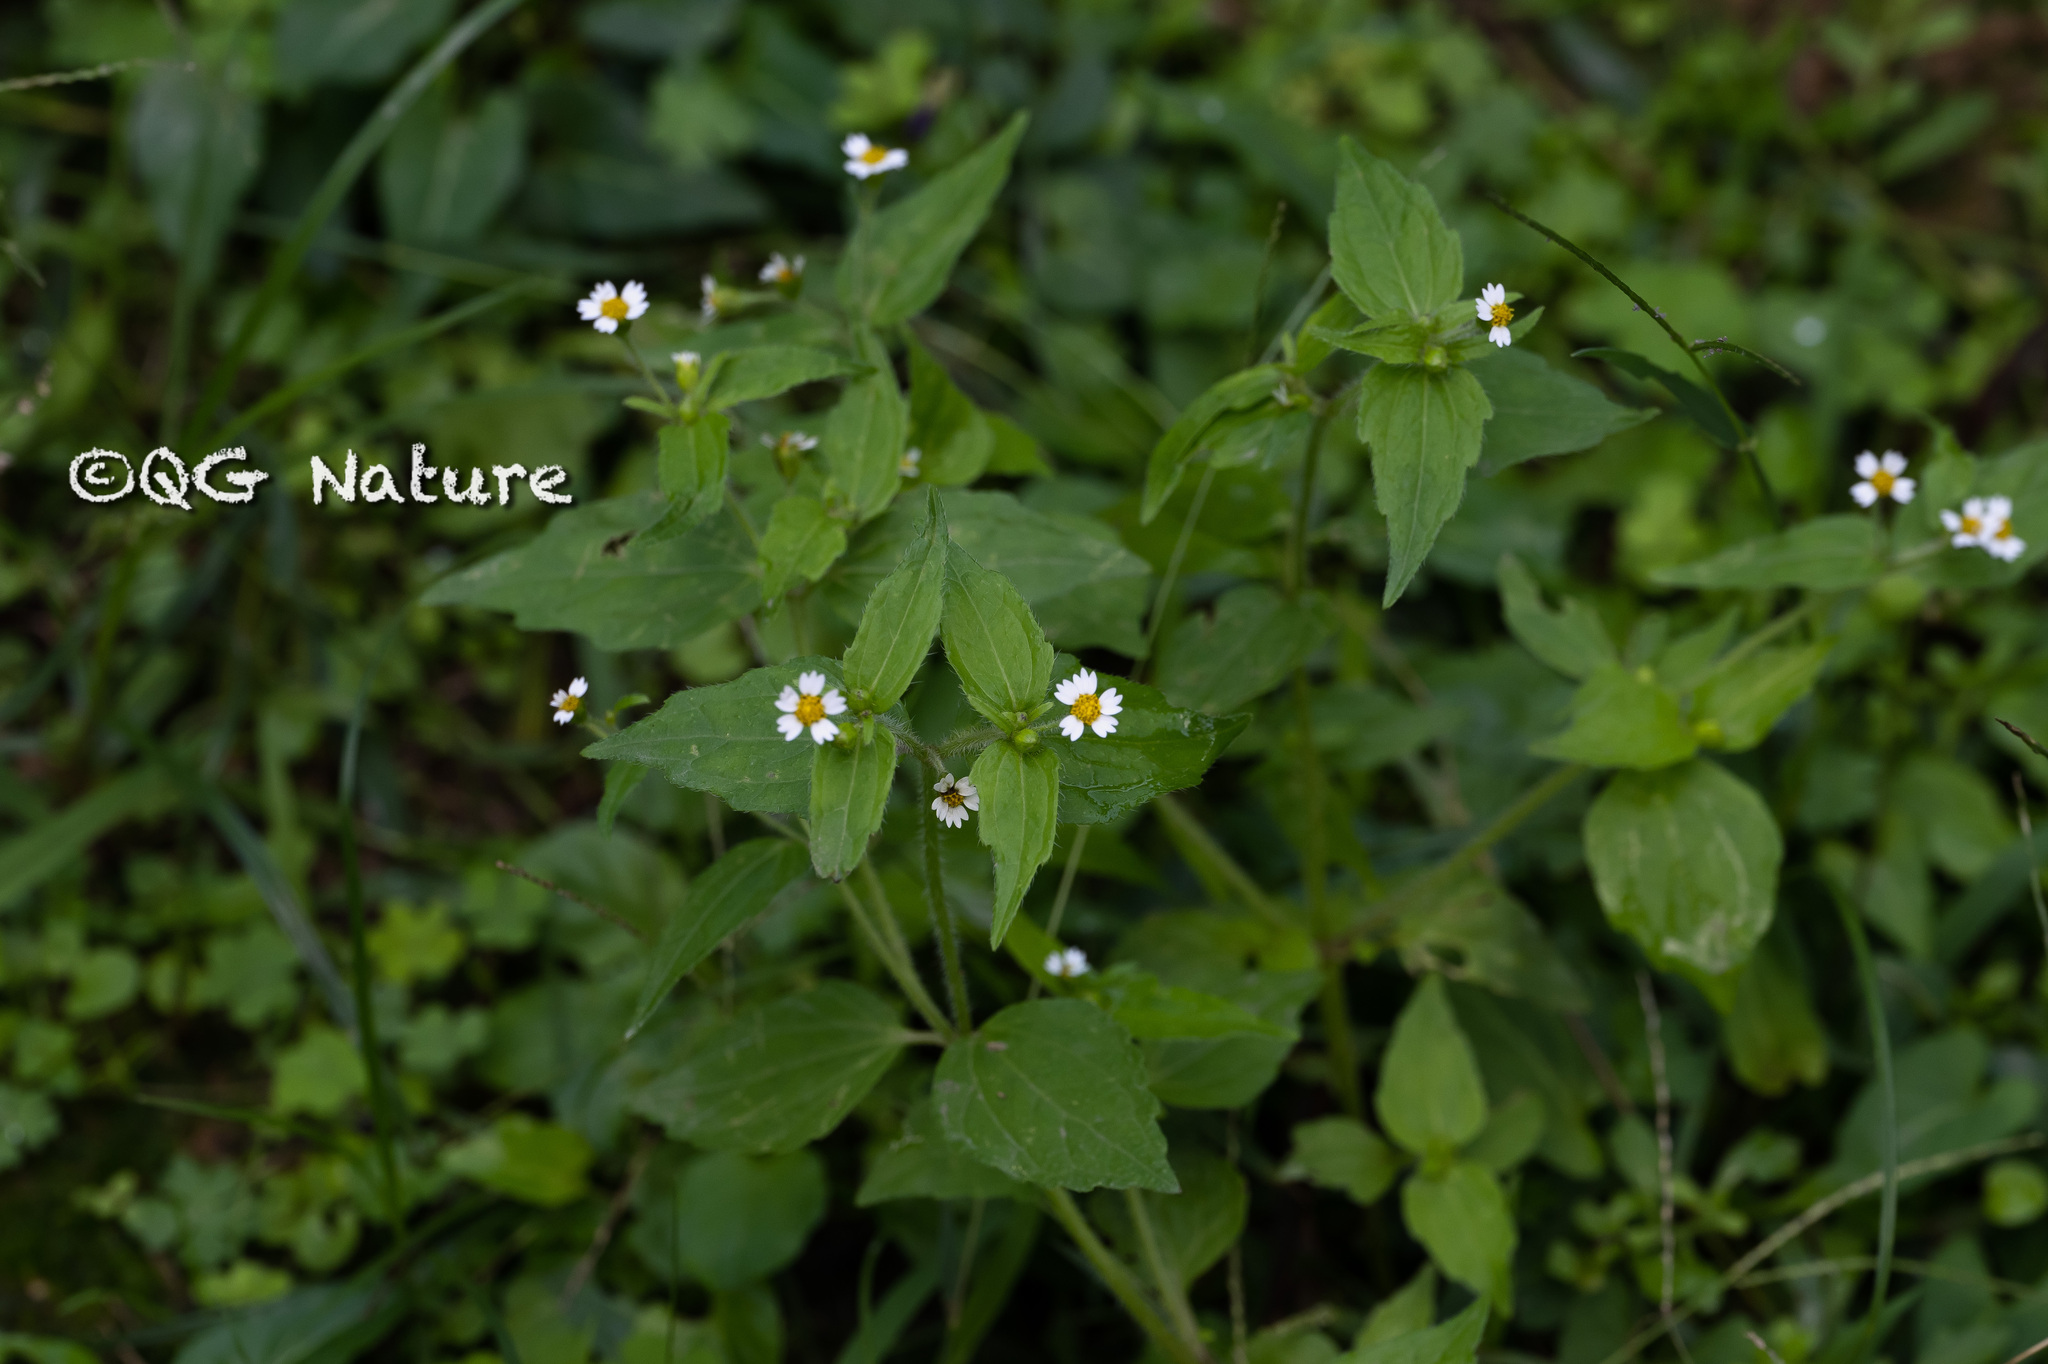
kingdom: Plantae
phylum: Tracheophyta
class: Magnoliopsida
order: Asterales
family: Asteraceae
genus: Galinsoga
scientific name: Galinsoga quadriradiata
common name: Shaggy soldier
